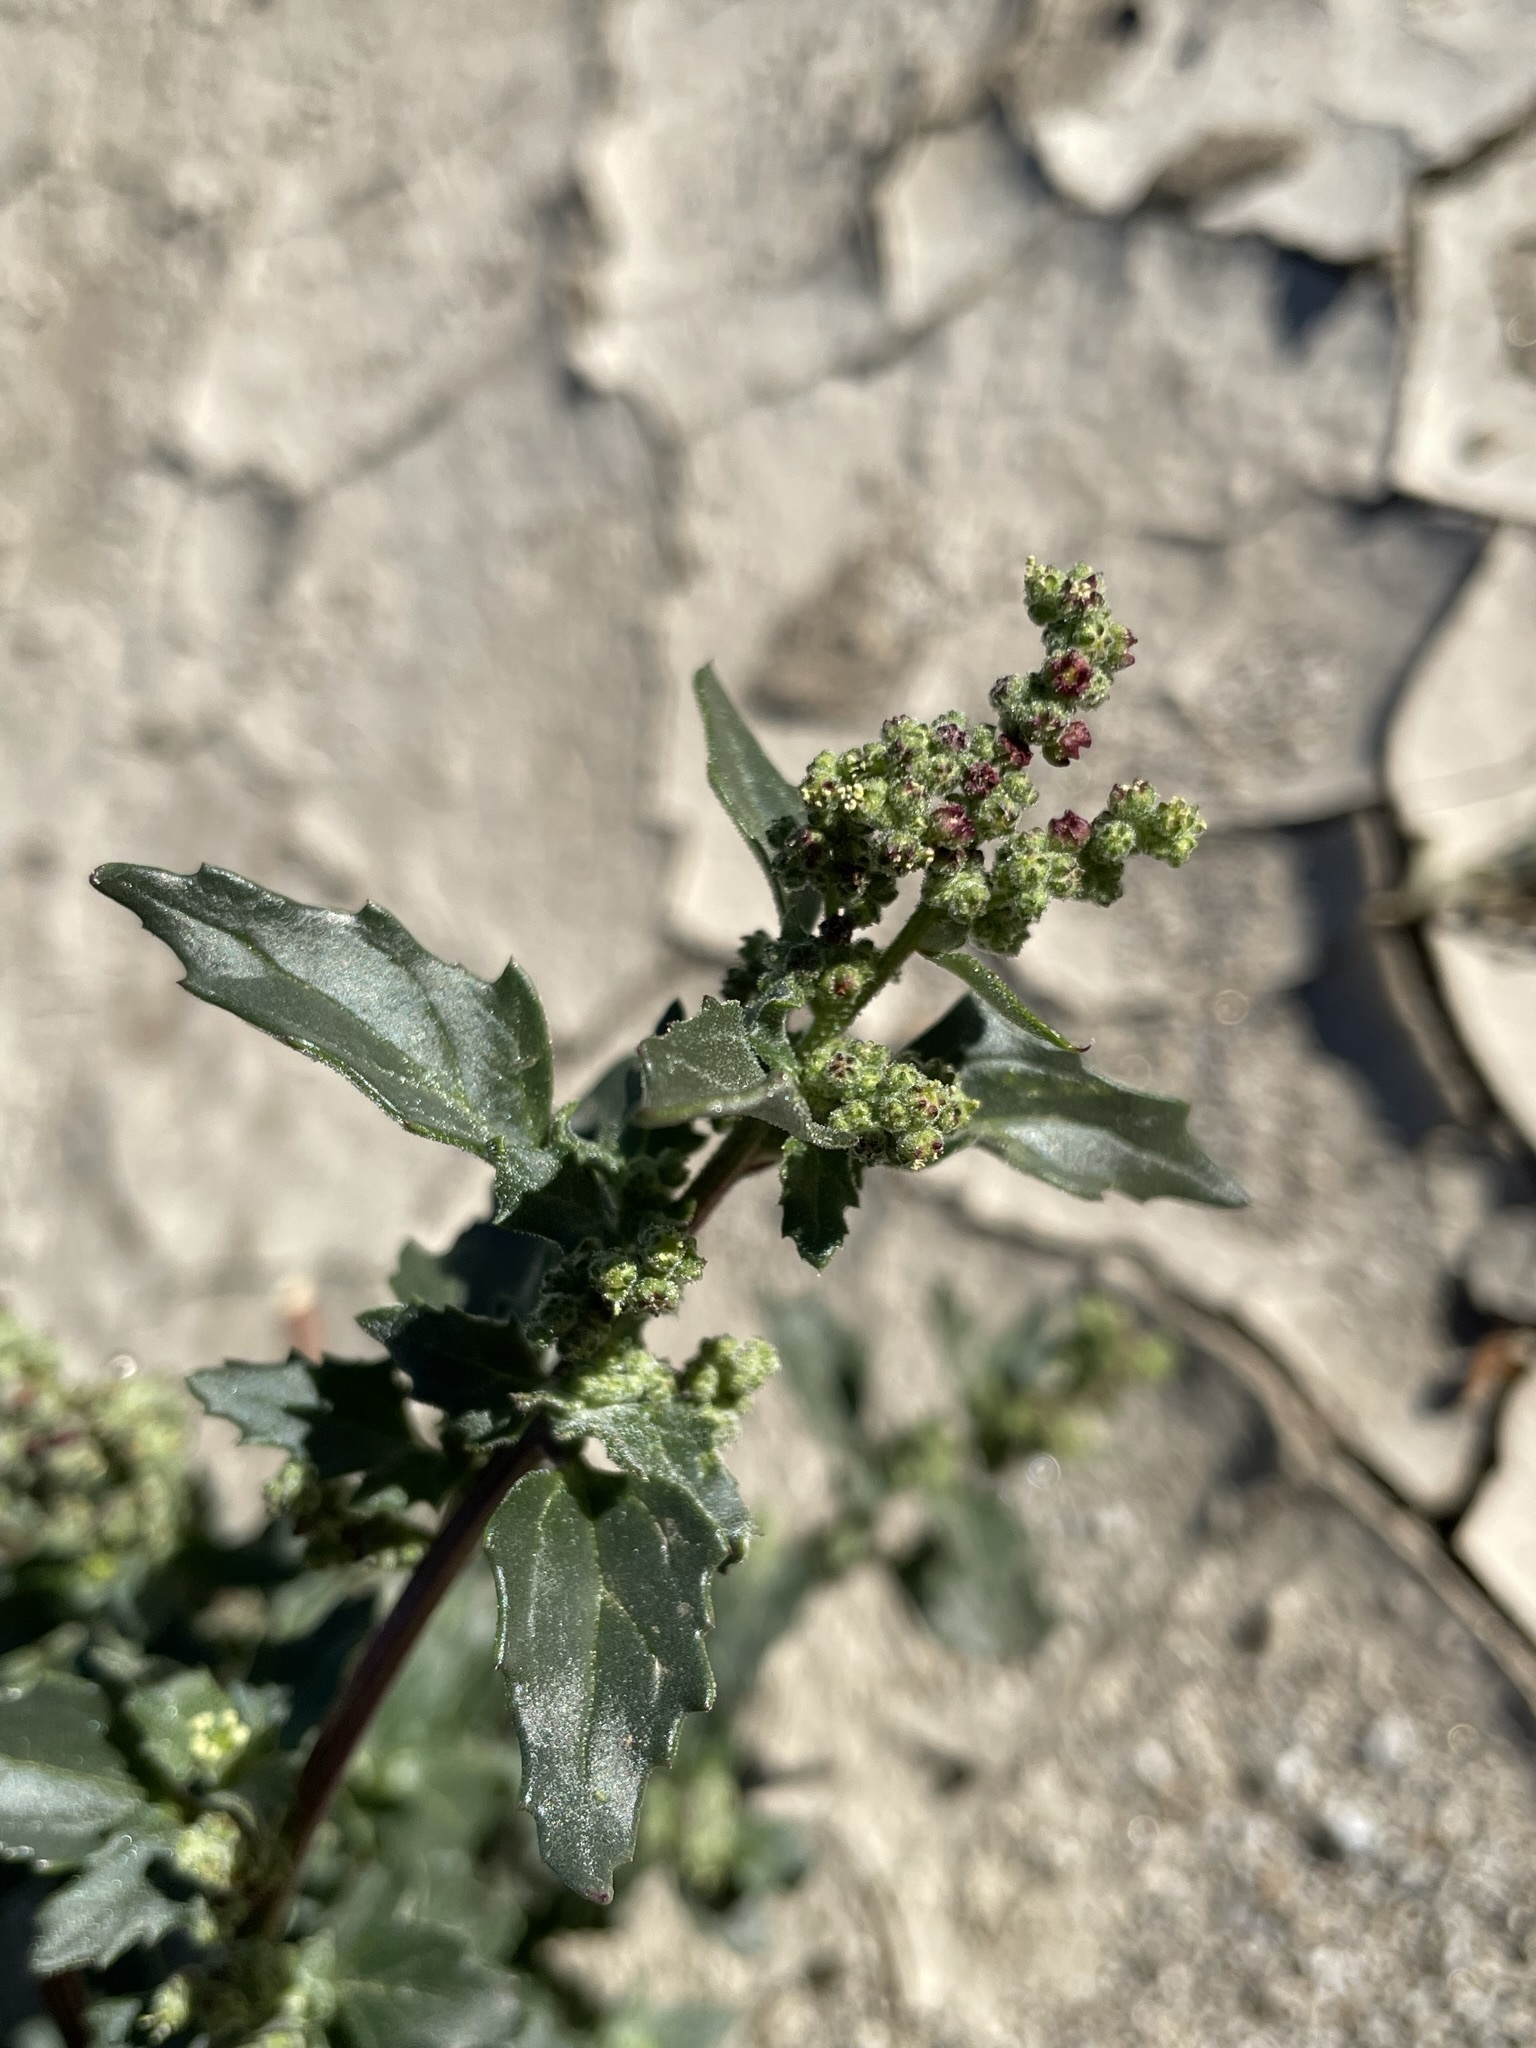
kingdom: Plantae
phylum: Tracheophyta
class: Magnoliopsida
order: Caryophyllales
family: Amaranthaceae
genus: Chenopodiastrum
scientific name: Chenopodiastrum murale
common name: Sowbane
